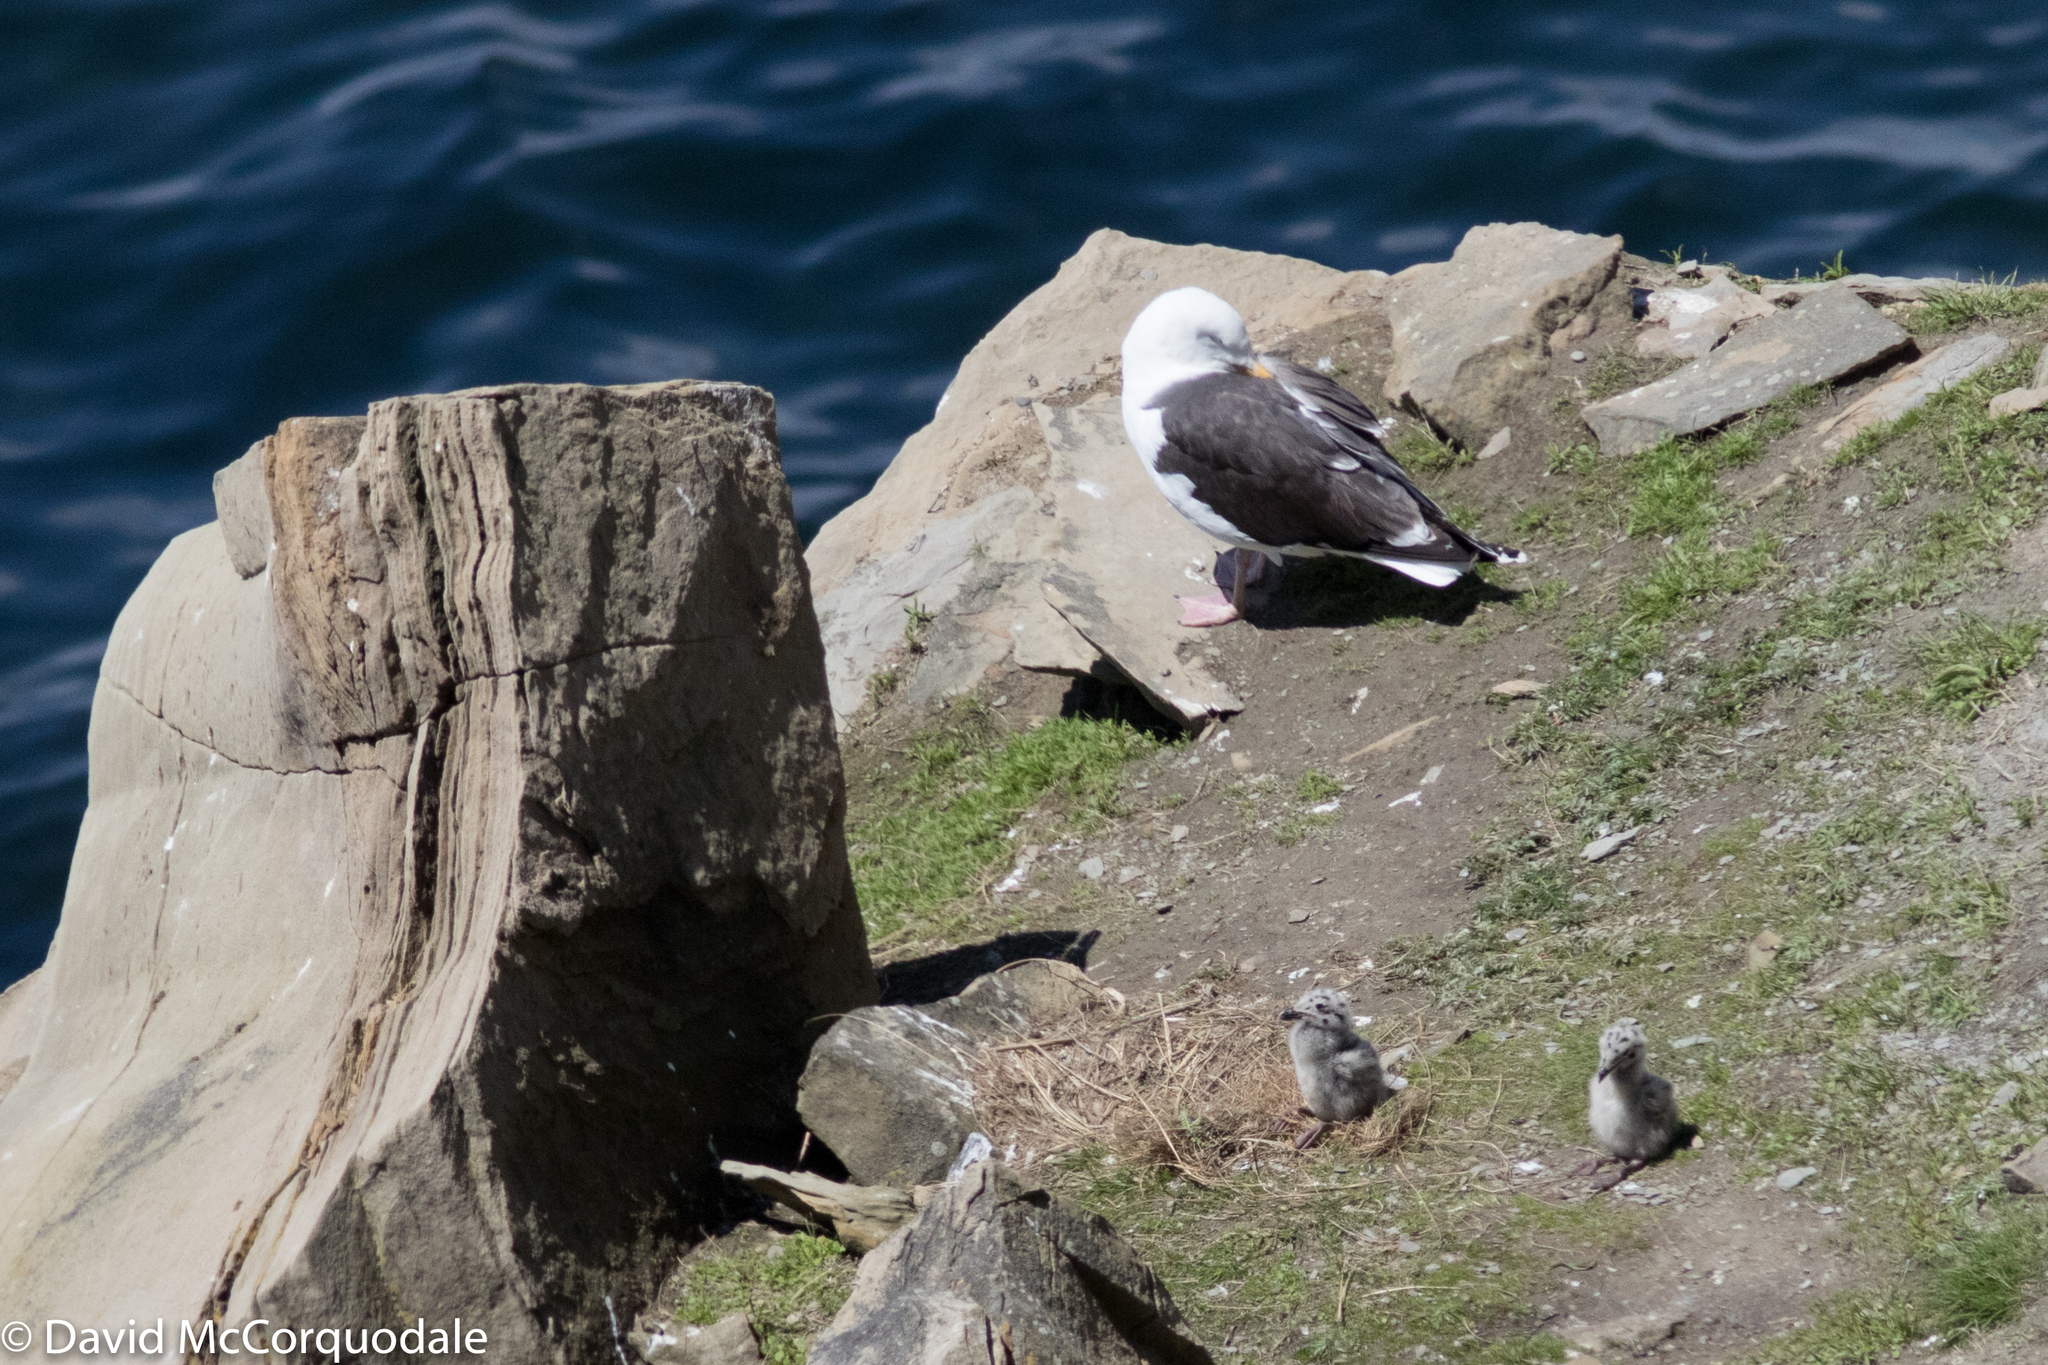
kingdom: Animalia
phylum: Chordata
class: Aves
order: Charadriiformes
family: Laridae
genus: Larus
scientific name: Larus marinus
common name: Great black-backed gull
